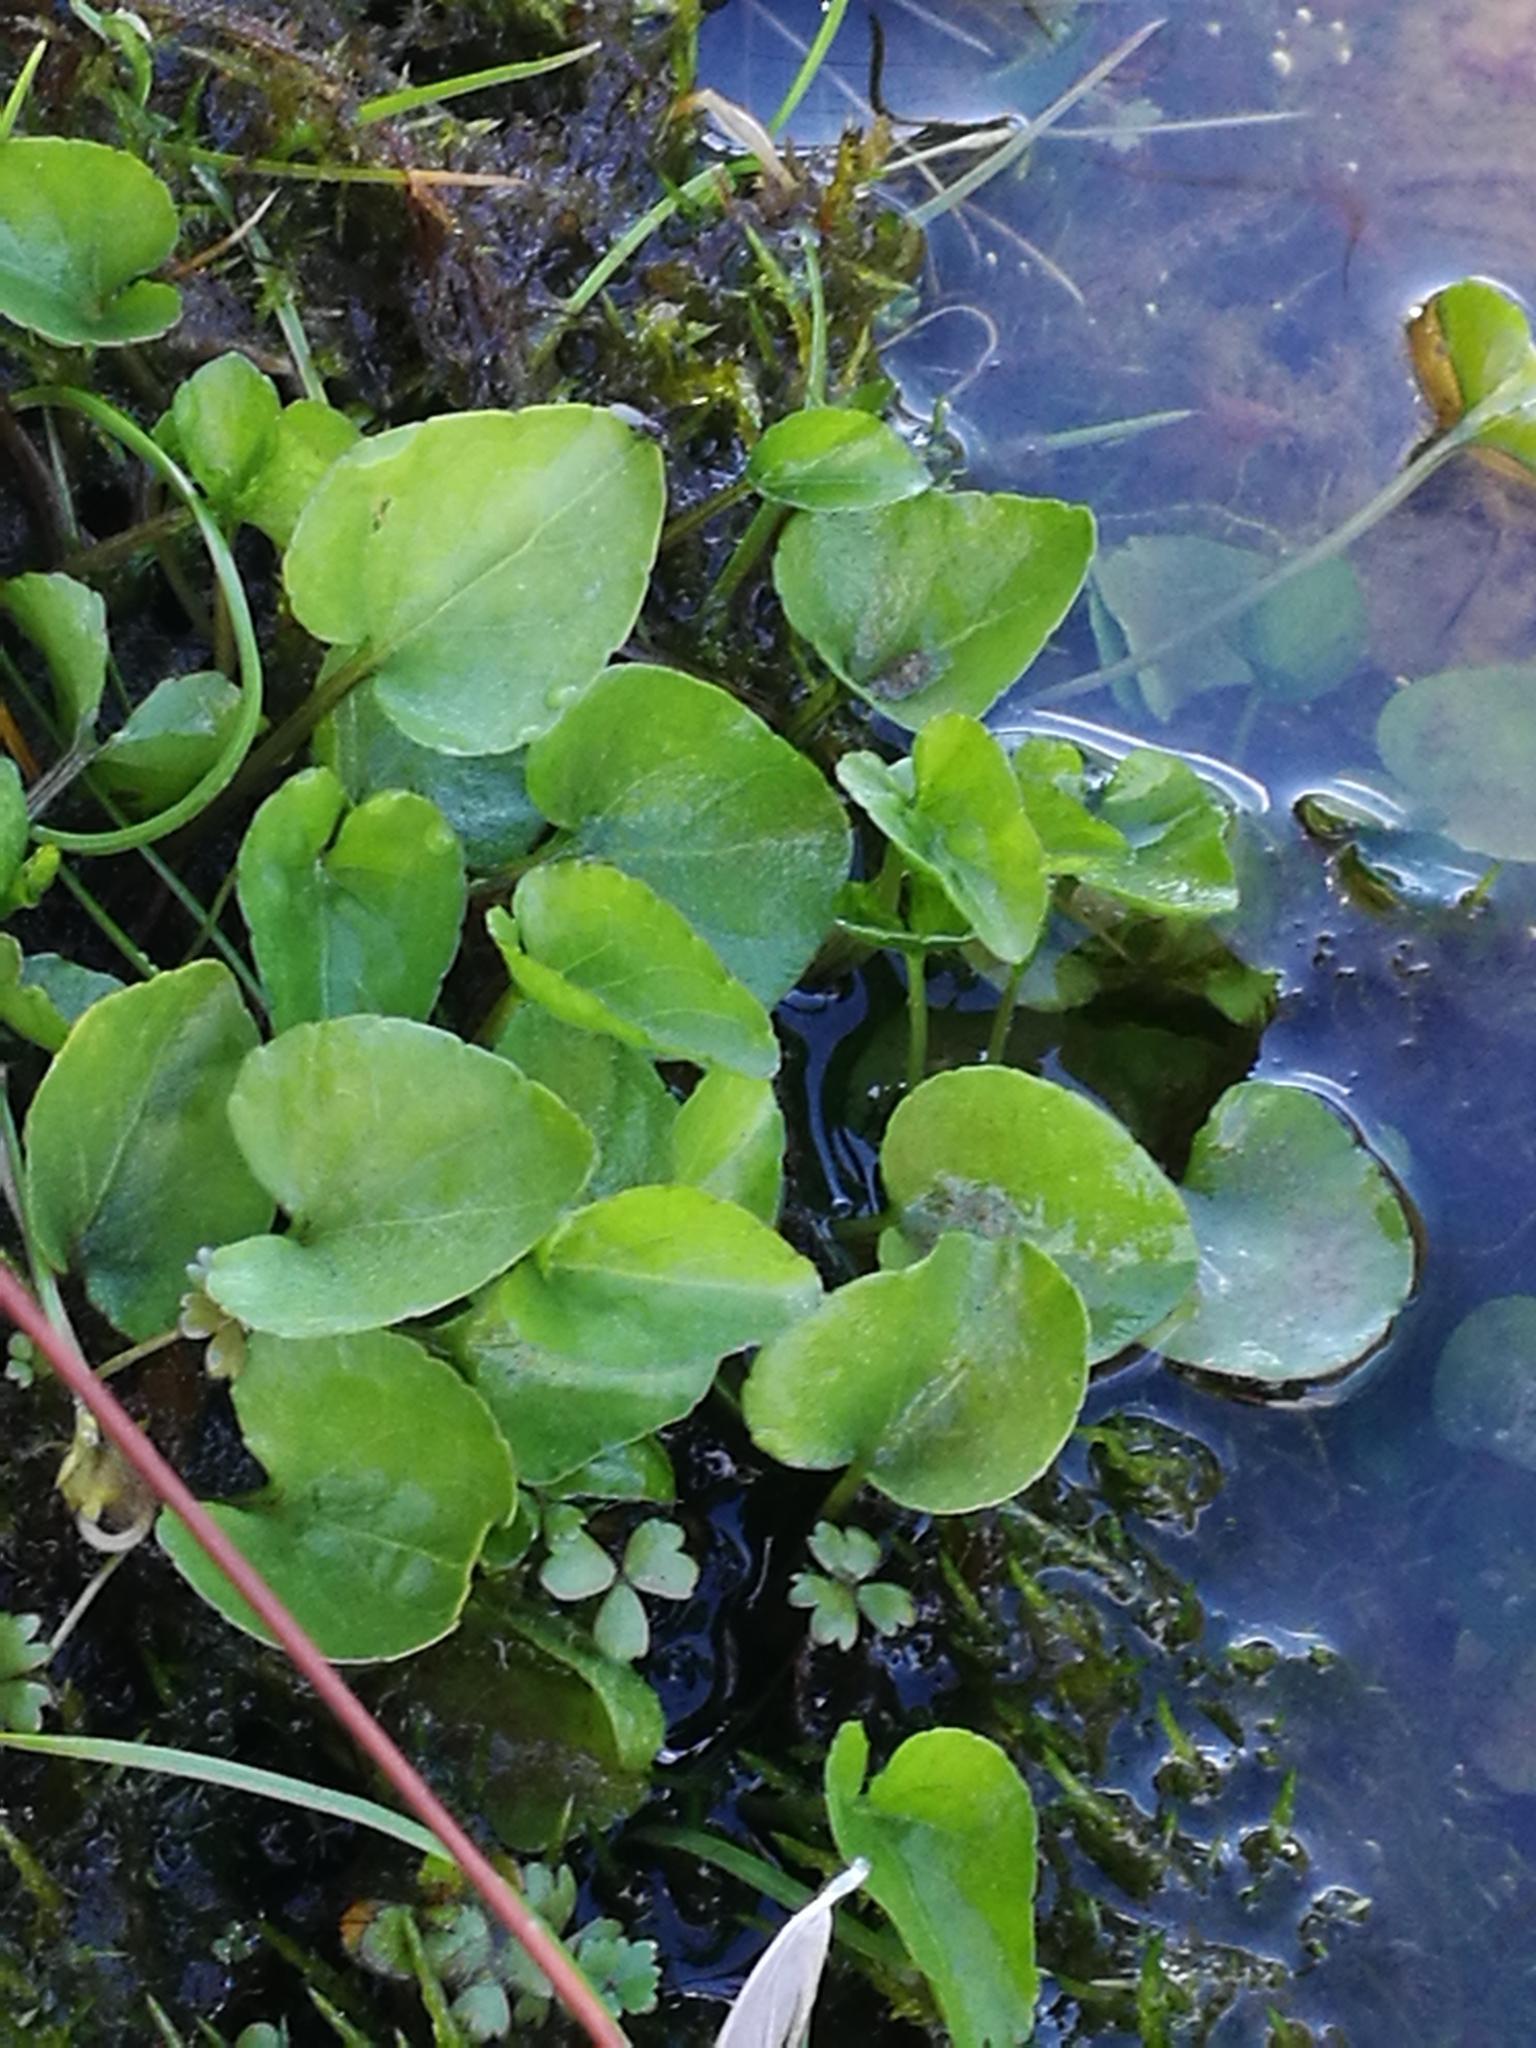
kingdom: Plantae
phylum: Tracheophyta
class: Magnoliopsida
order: Malpighiales
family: Violaceae
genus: Viola
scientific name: Viola cunninghamii
